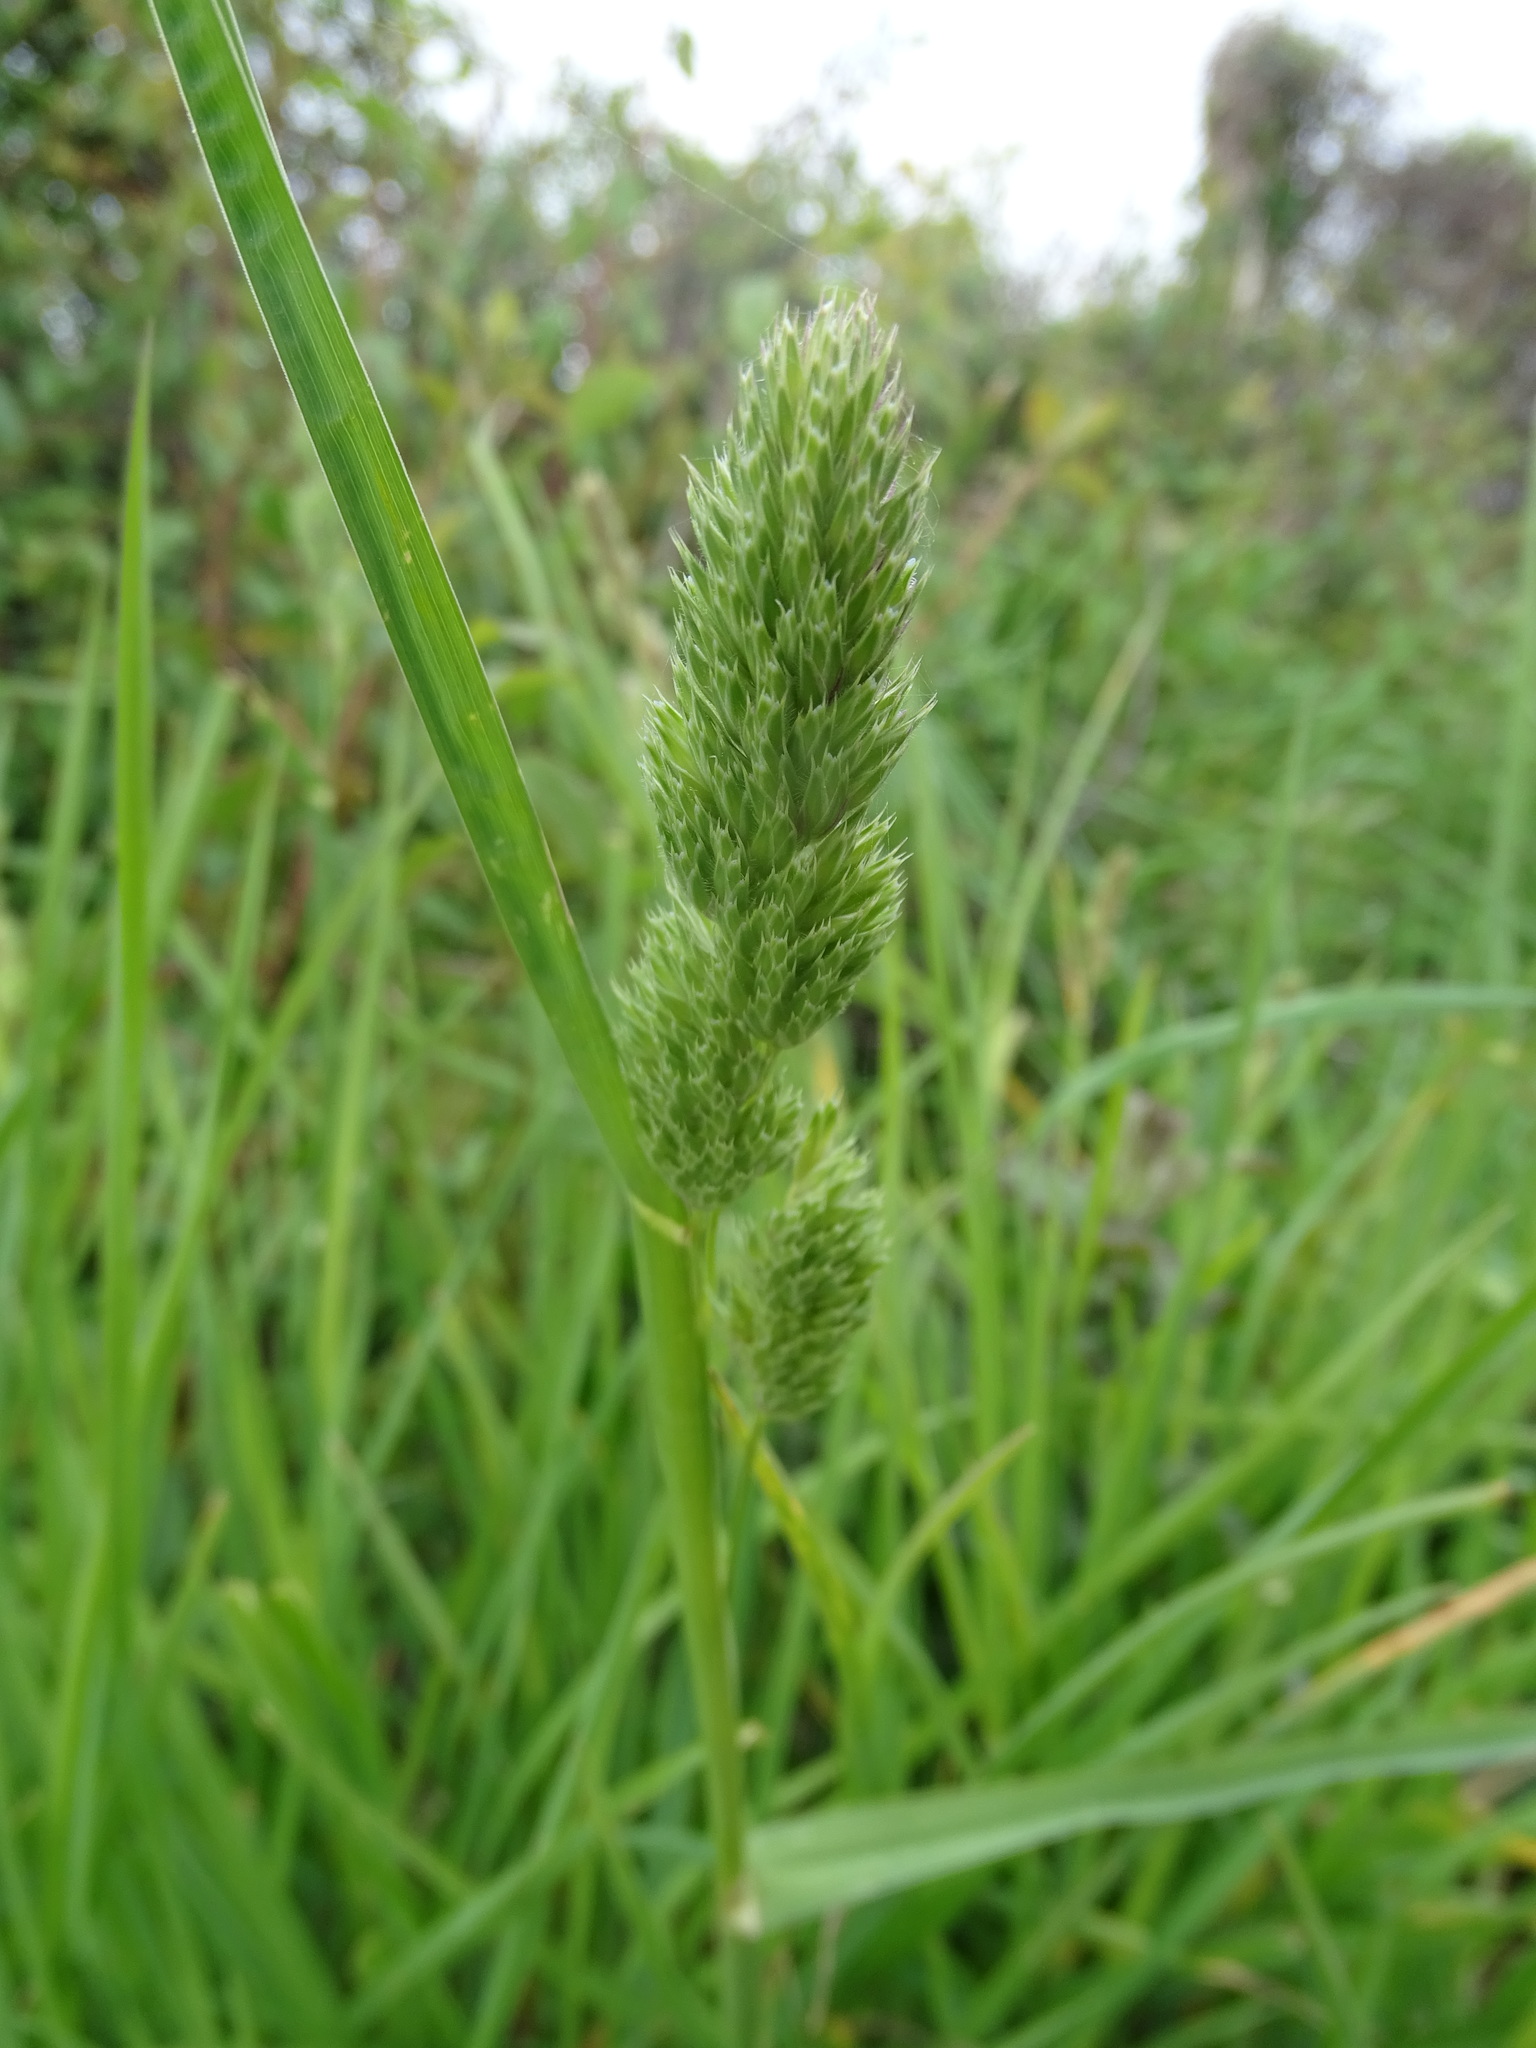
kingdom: Plantae
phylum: Tracheophyta
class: Liliopsida
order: Poales
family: Poaceae
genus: Dactylis
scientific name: Dactylis glomerata
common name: Orchardgrass
